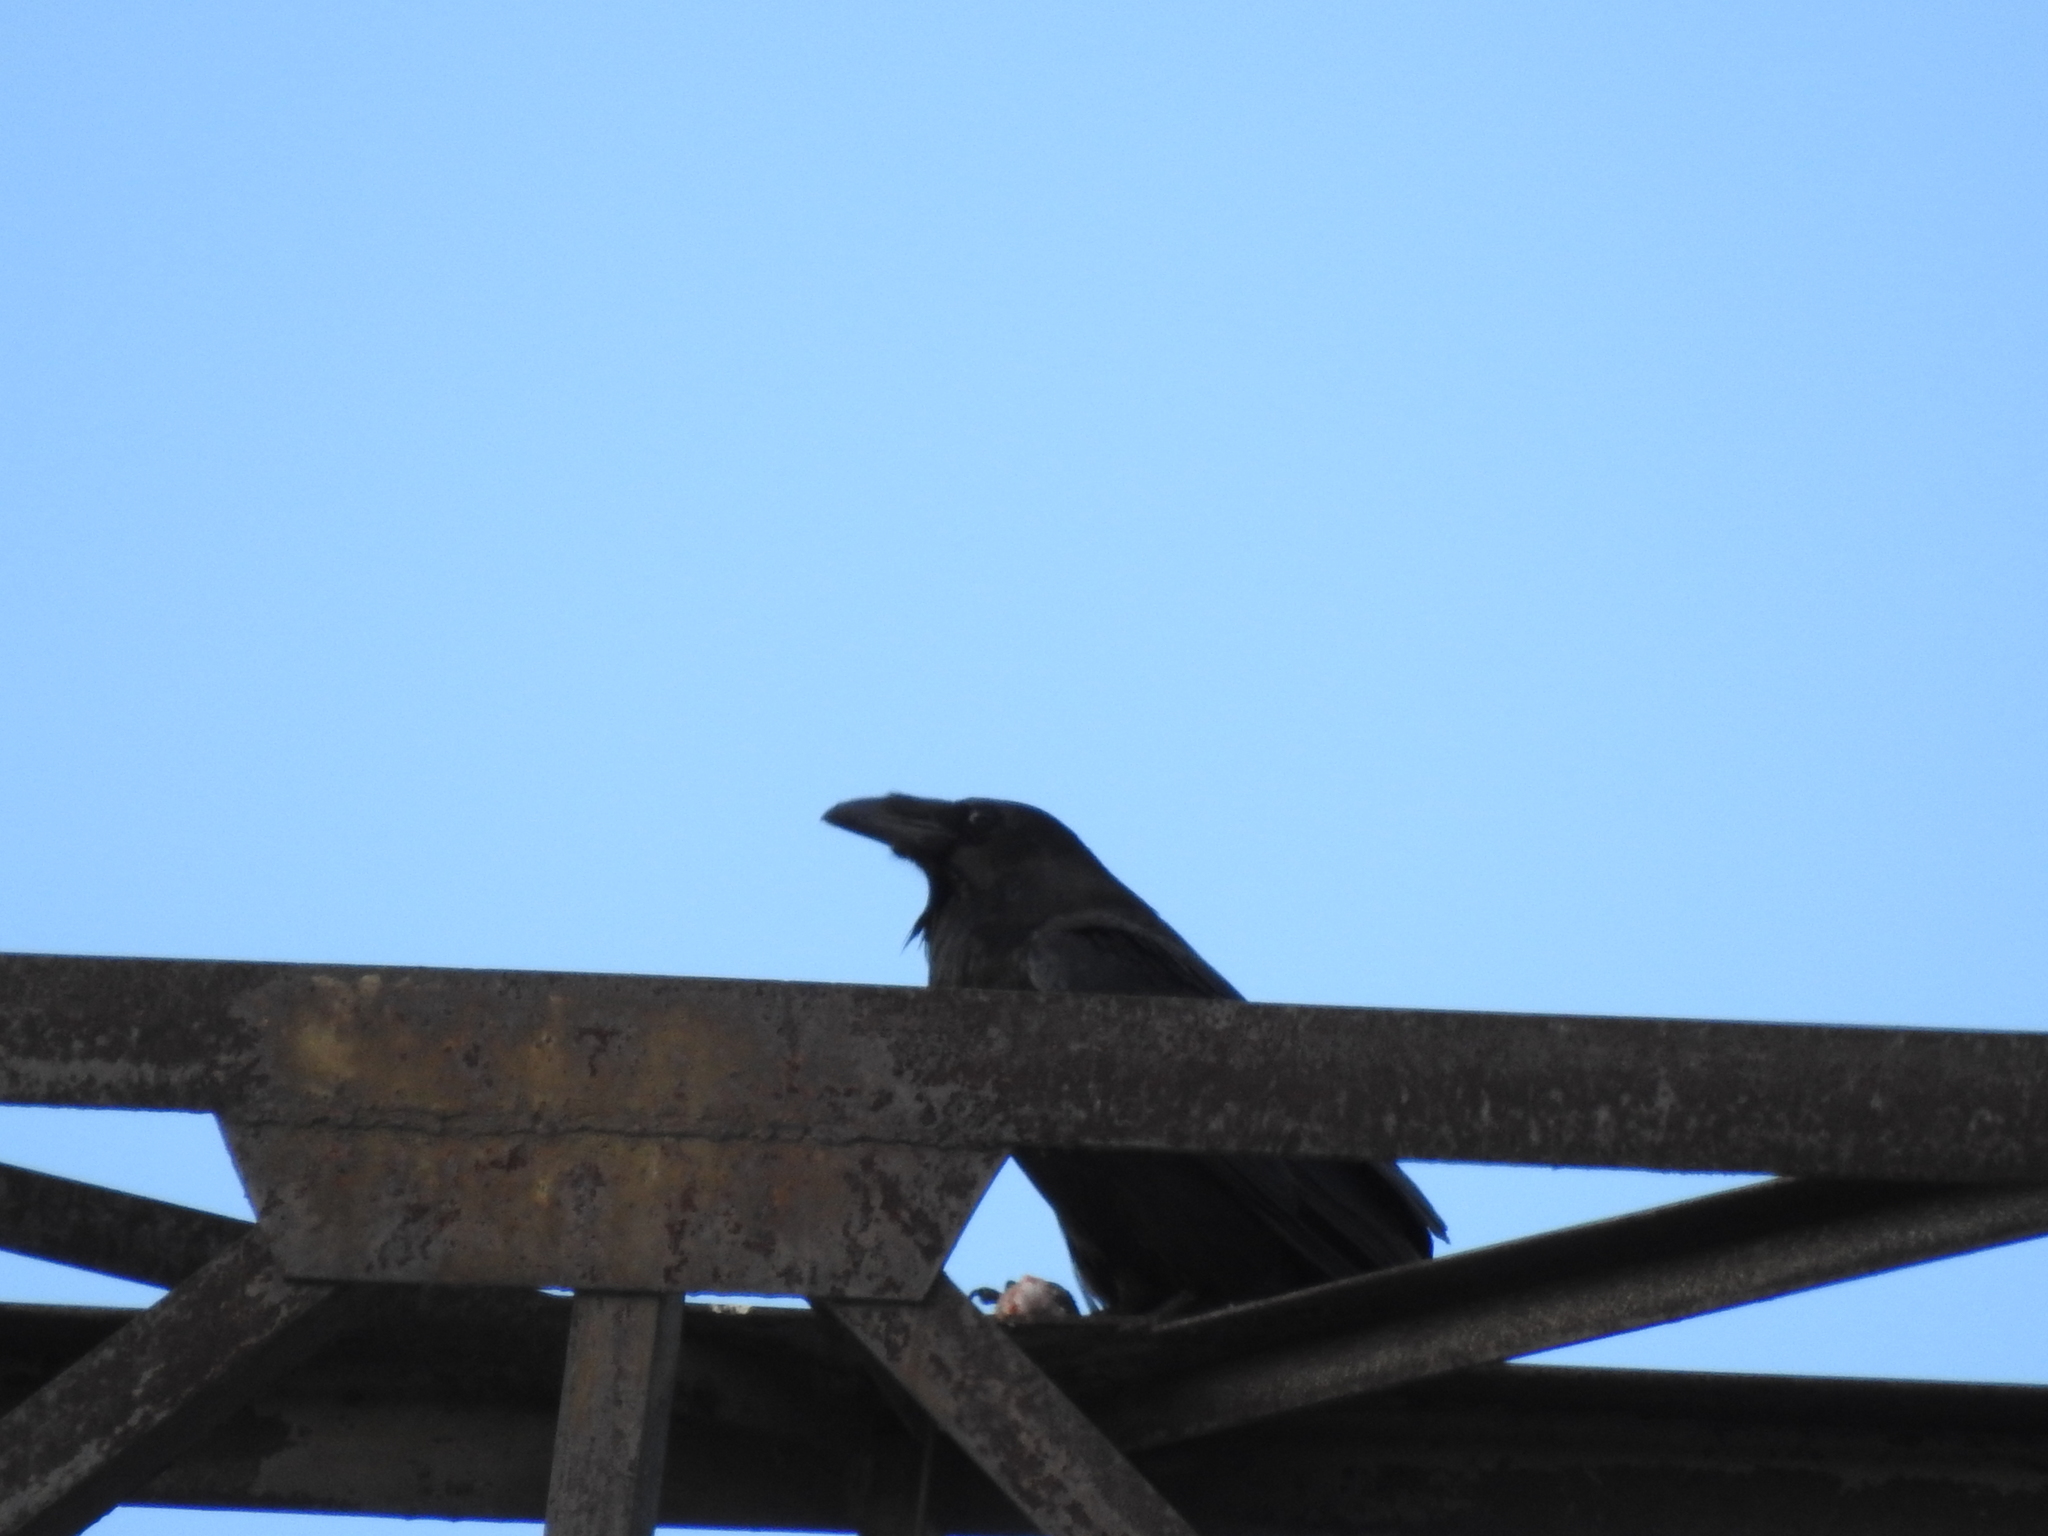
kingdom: Animalia
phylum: Chordata
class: Aves
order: Passeriformes
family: Corvidae
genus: Corvus
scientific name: Corvus corax
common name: Common raven
